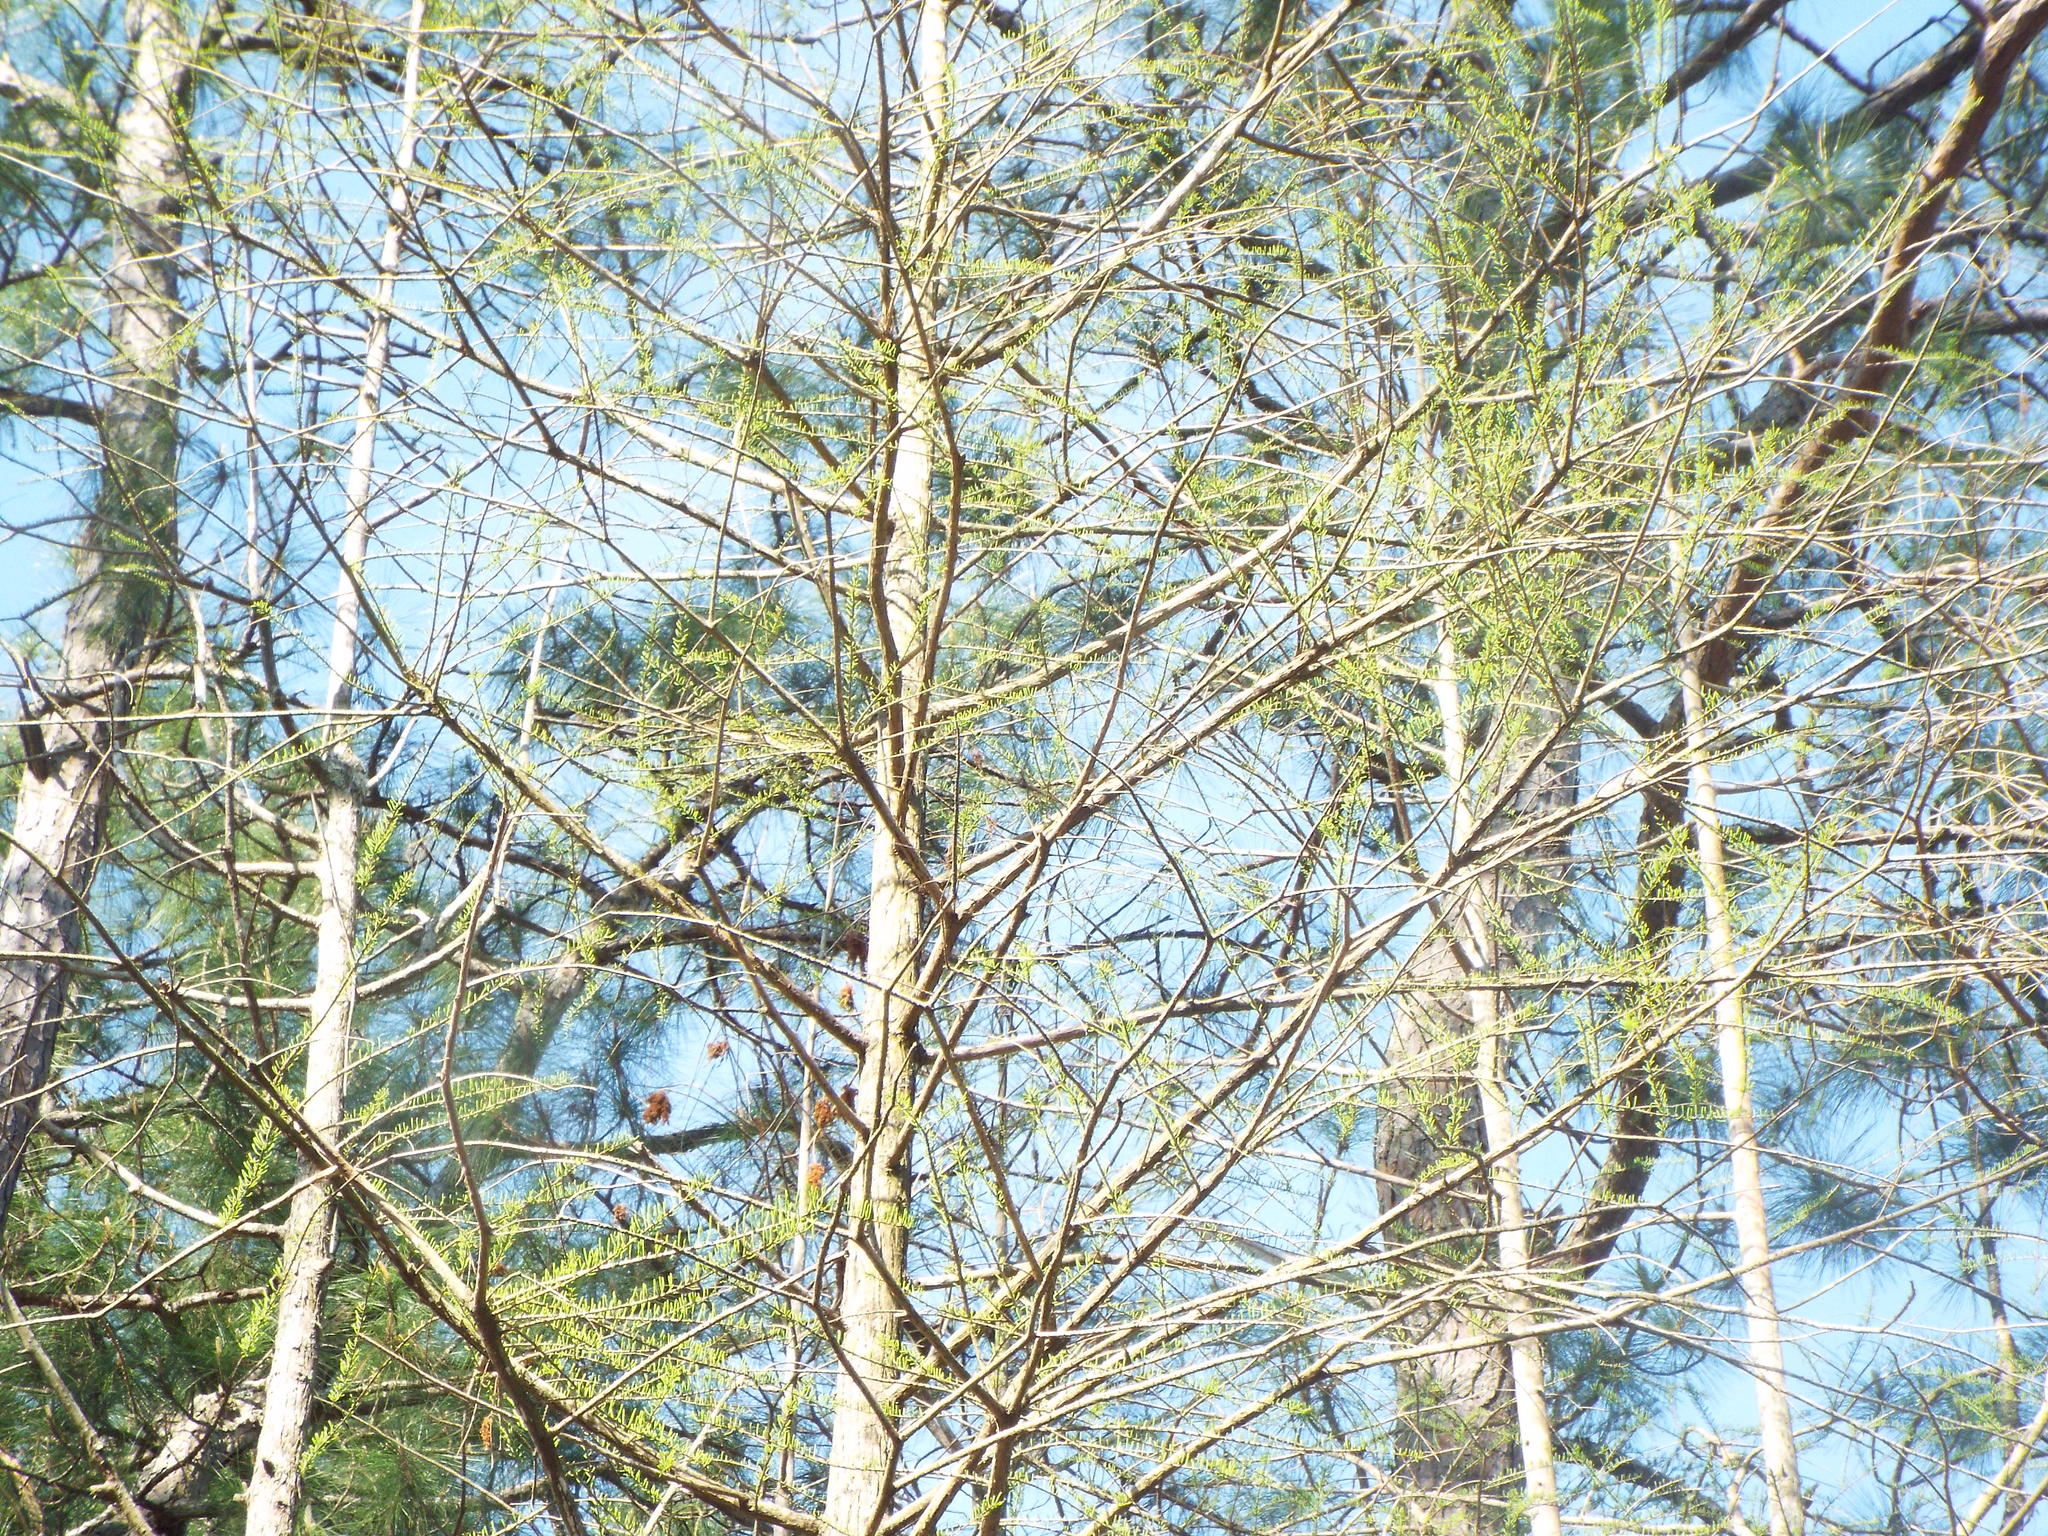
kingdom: Plantae
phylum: Tracheophyta
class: Pinopsida
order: Pinales
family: Cupressaceae
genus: Taxodium
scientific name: Taxodium distichum
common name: Bald cypress
